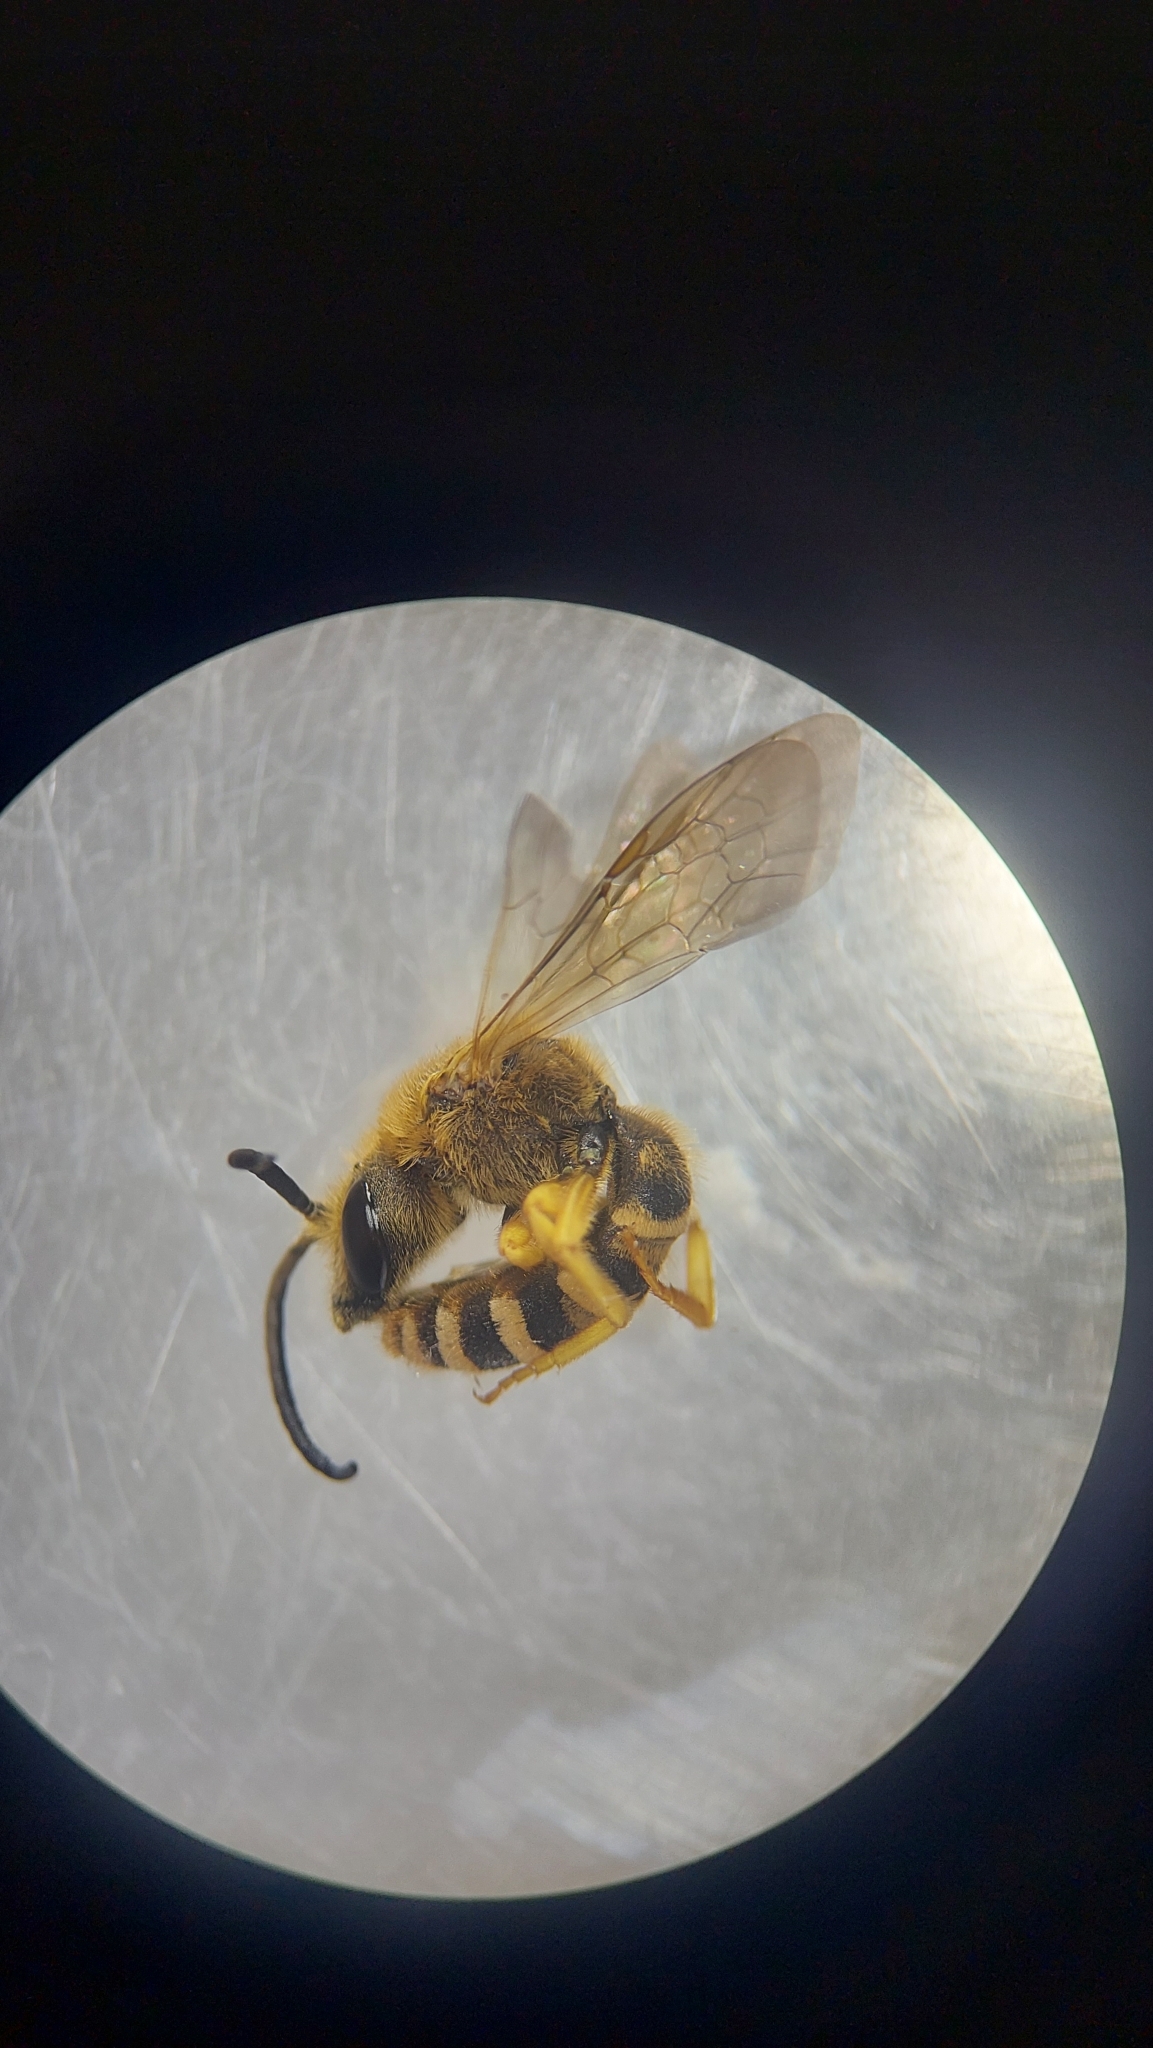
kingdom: Animalia
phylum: Arthropoda
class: Insecta
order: Hymenoptera
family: Halictidae
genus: Halictus
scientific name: Halictus scabiosae
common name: Great banded furrow bee
